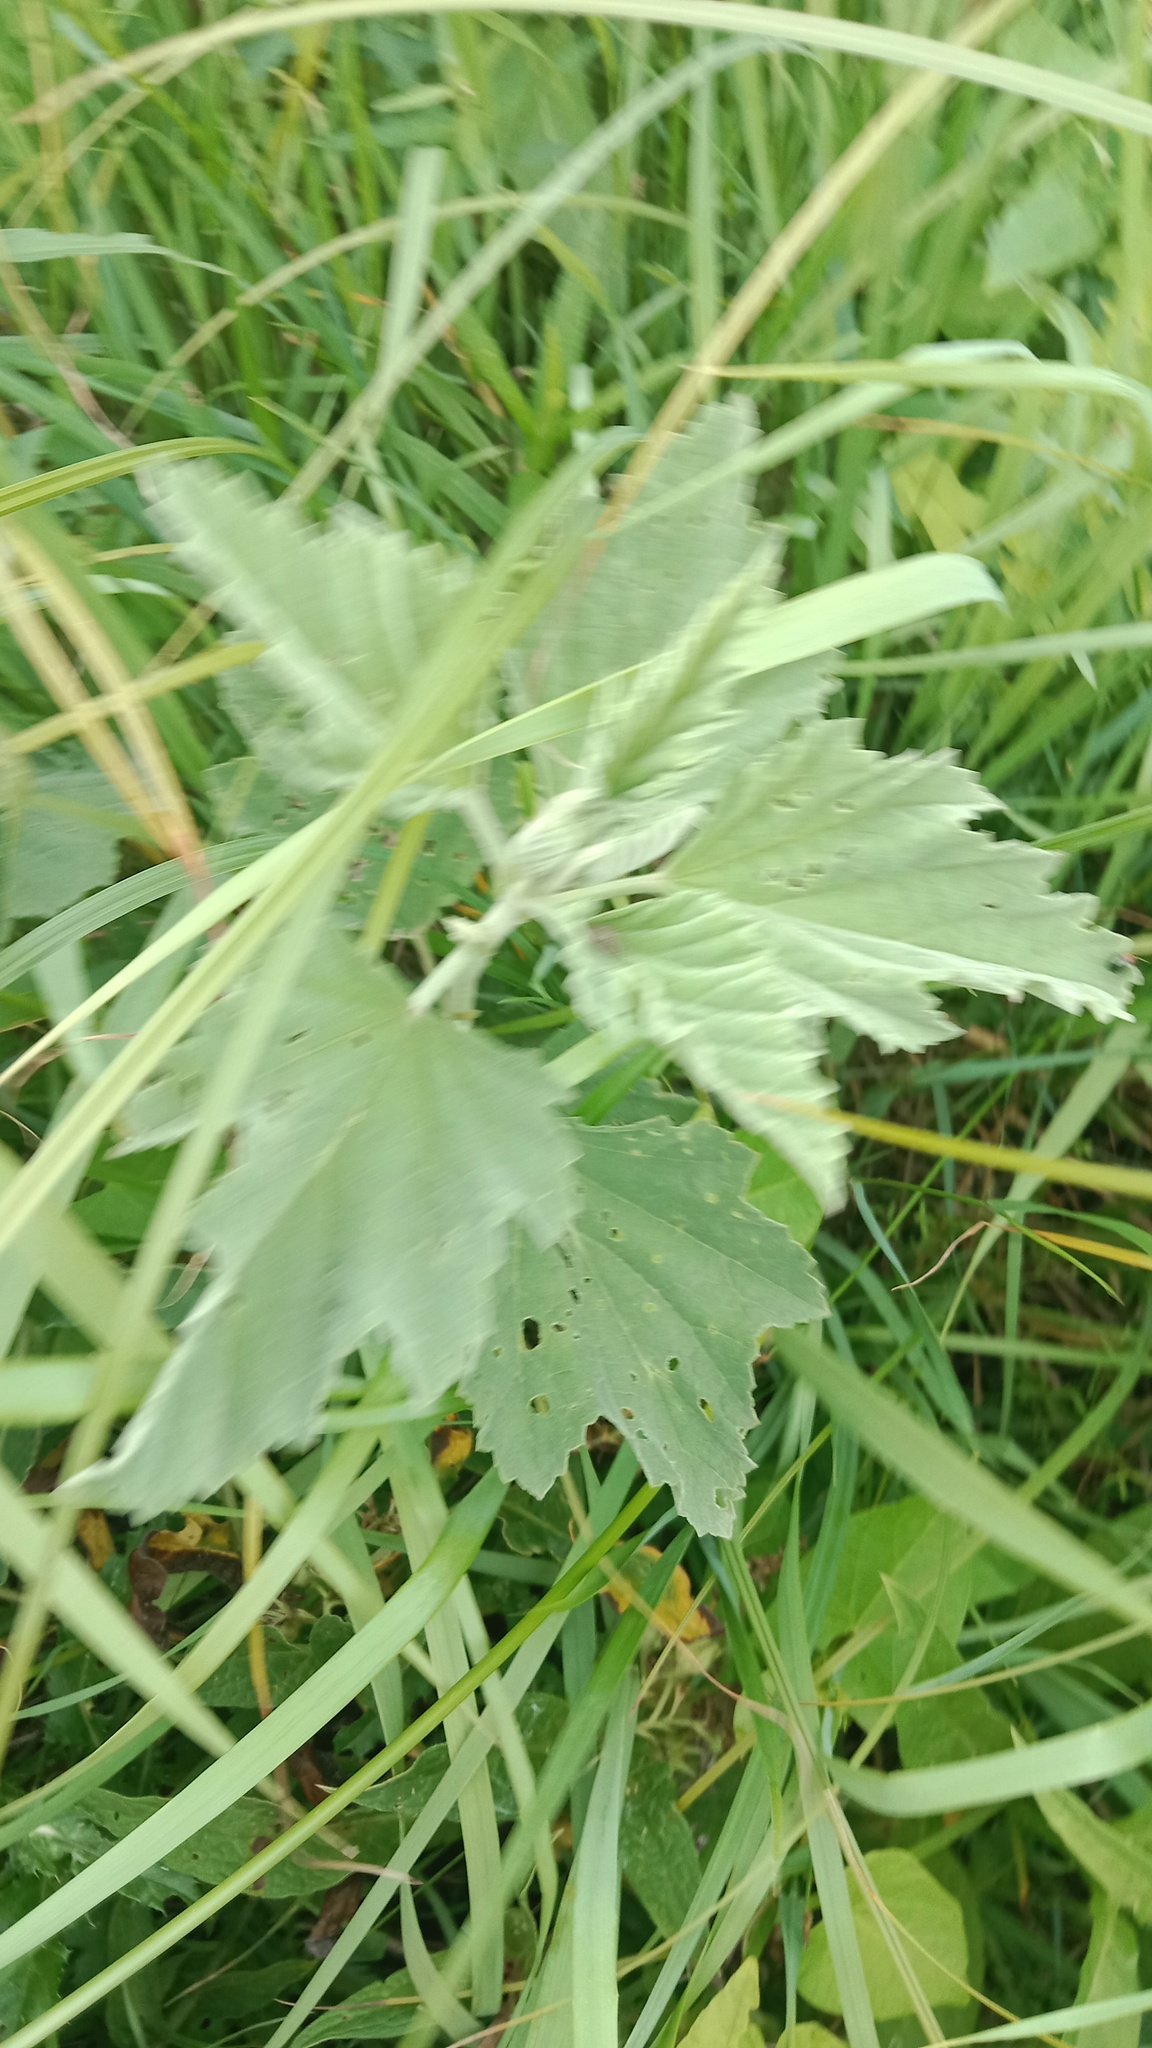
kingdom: Plantae
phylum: Tracheophyta
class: Magnoliopsida
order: Malvales
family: Malvaceae
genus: Althaea
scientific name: Althaea officinalis
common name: Marsh-mallow
